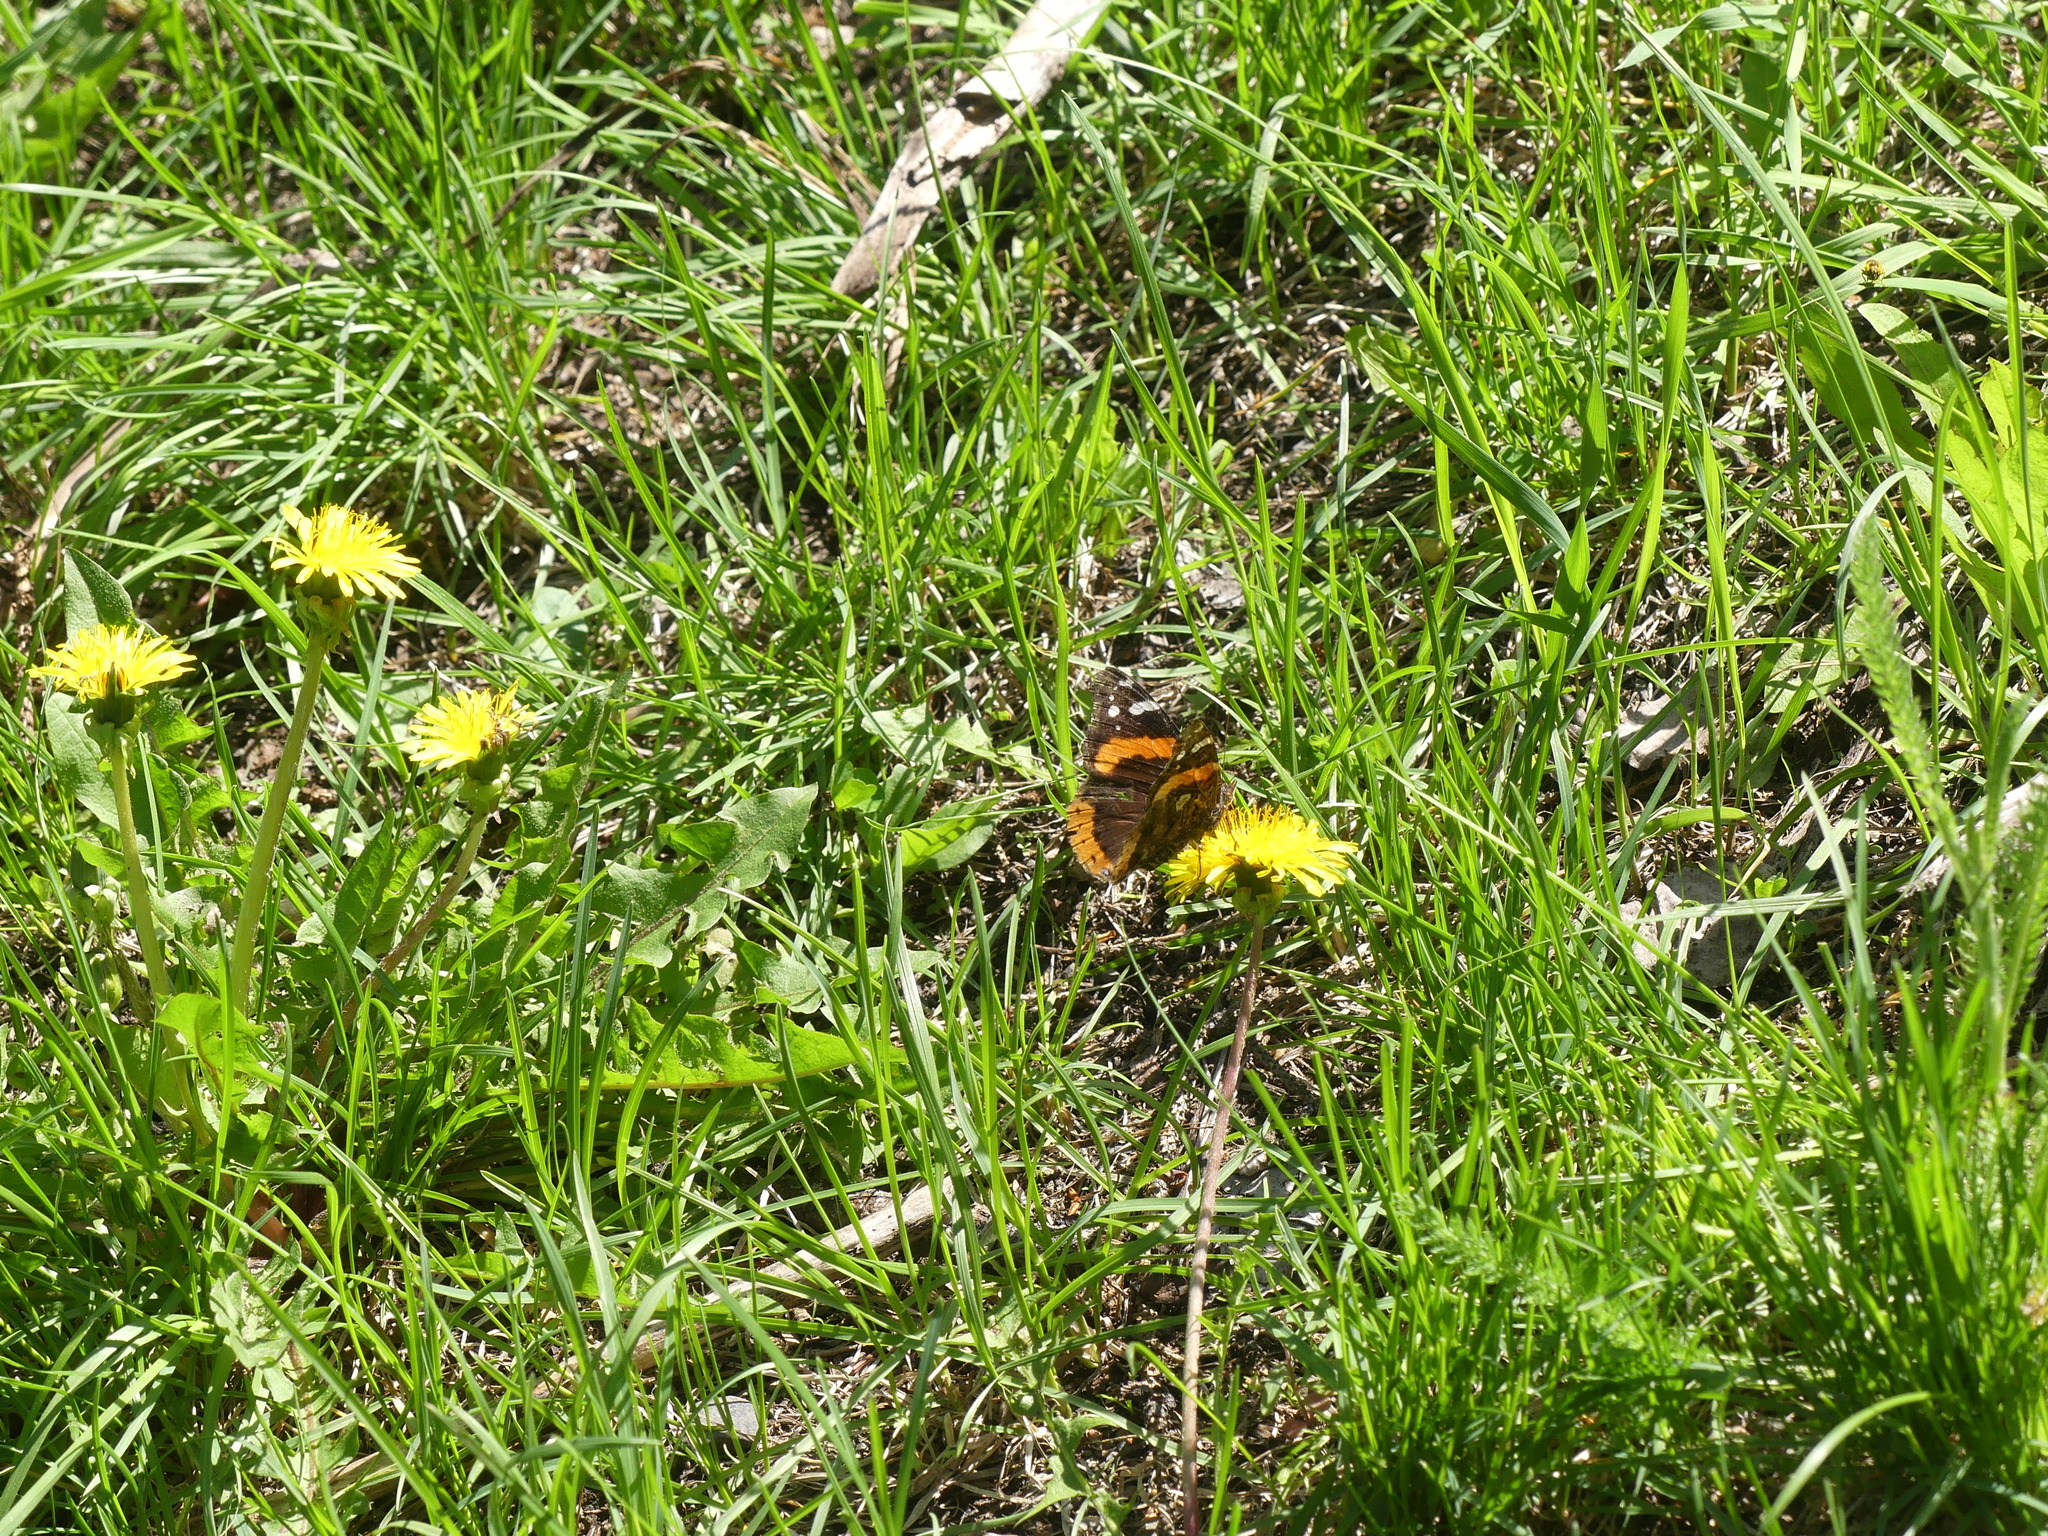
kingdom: Animalia
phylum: Arthropoda
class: Insecta
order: Lepidoptera
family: Nymphalidae
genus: Vanessa
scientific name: Vanessa atalanta
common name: Red admiral
